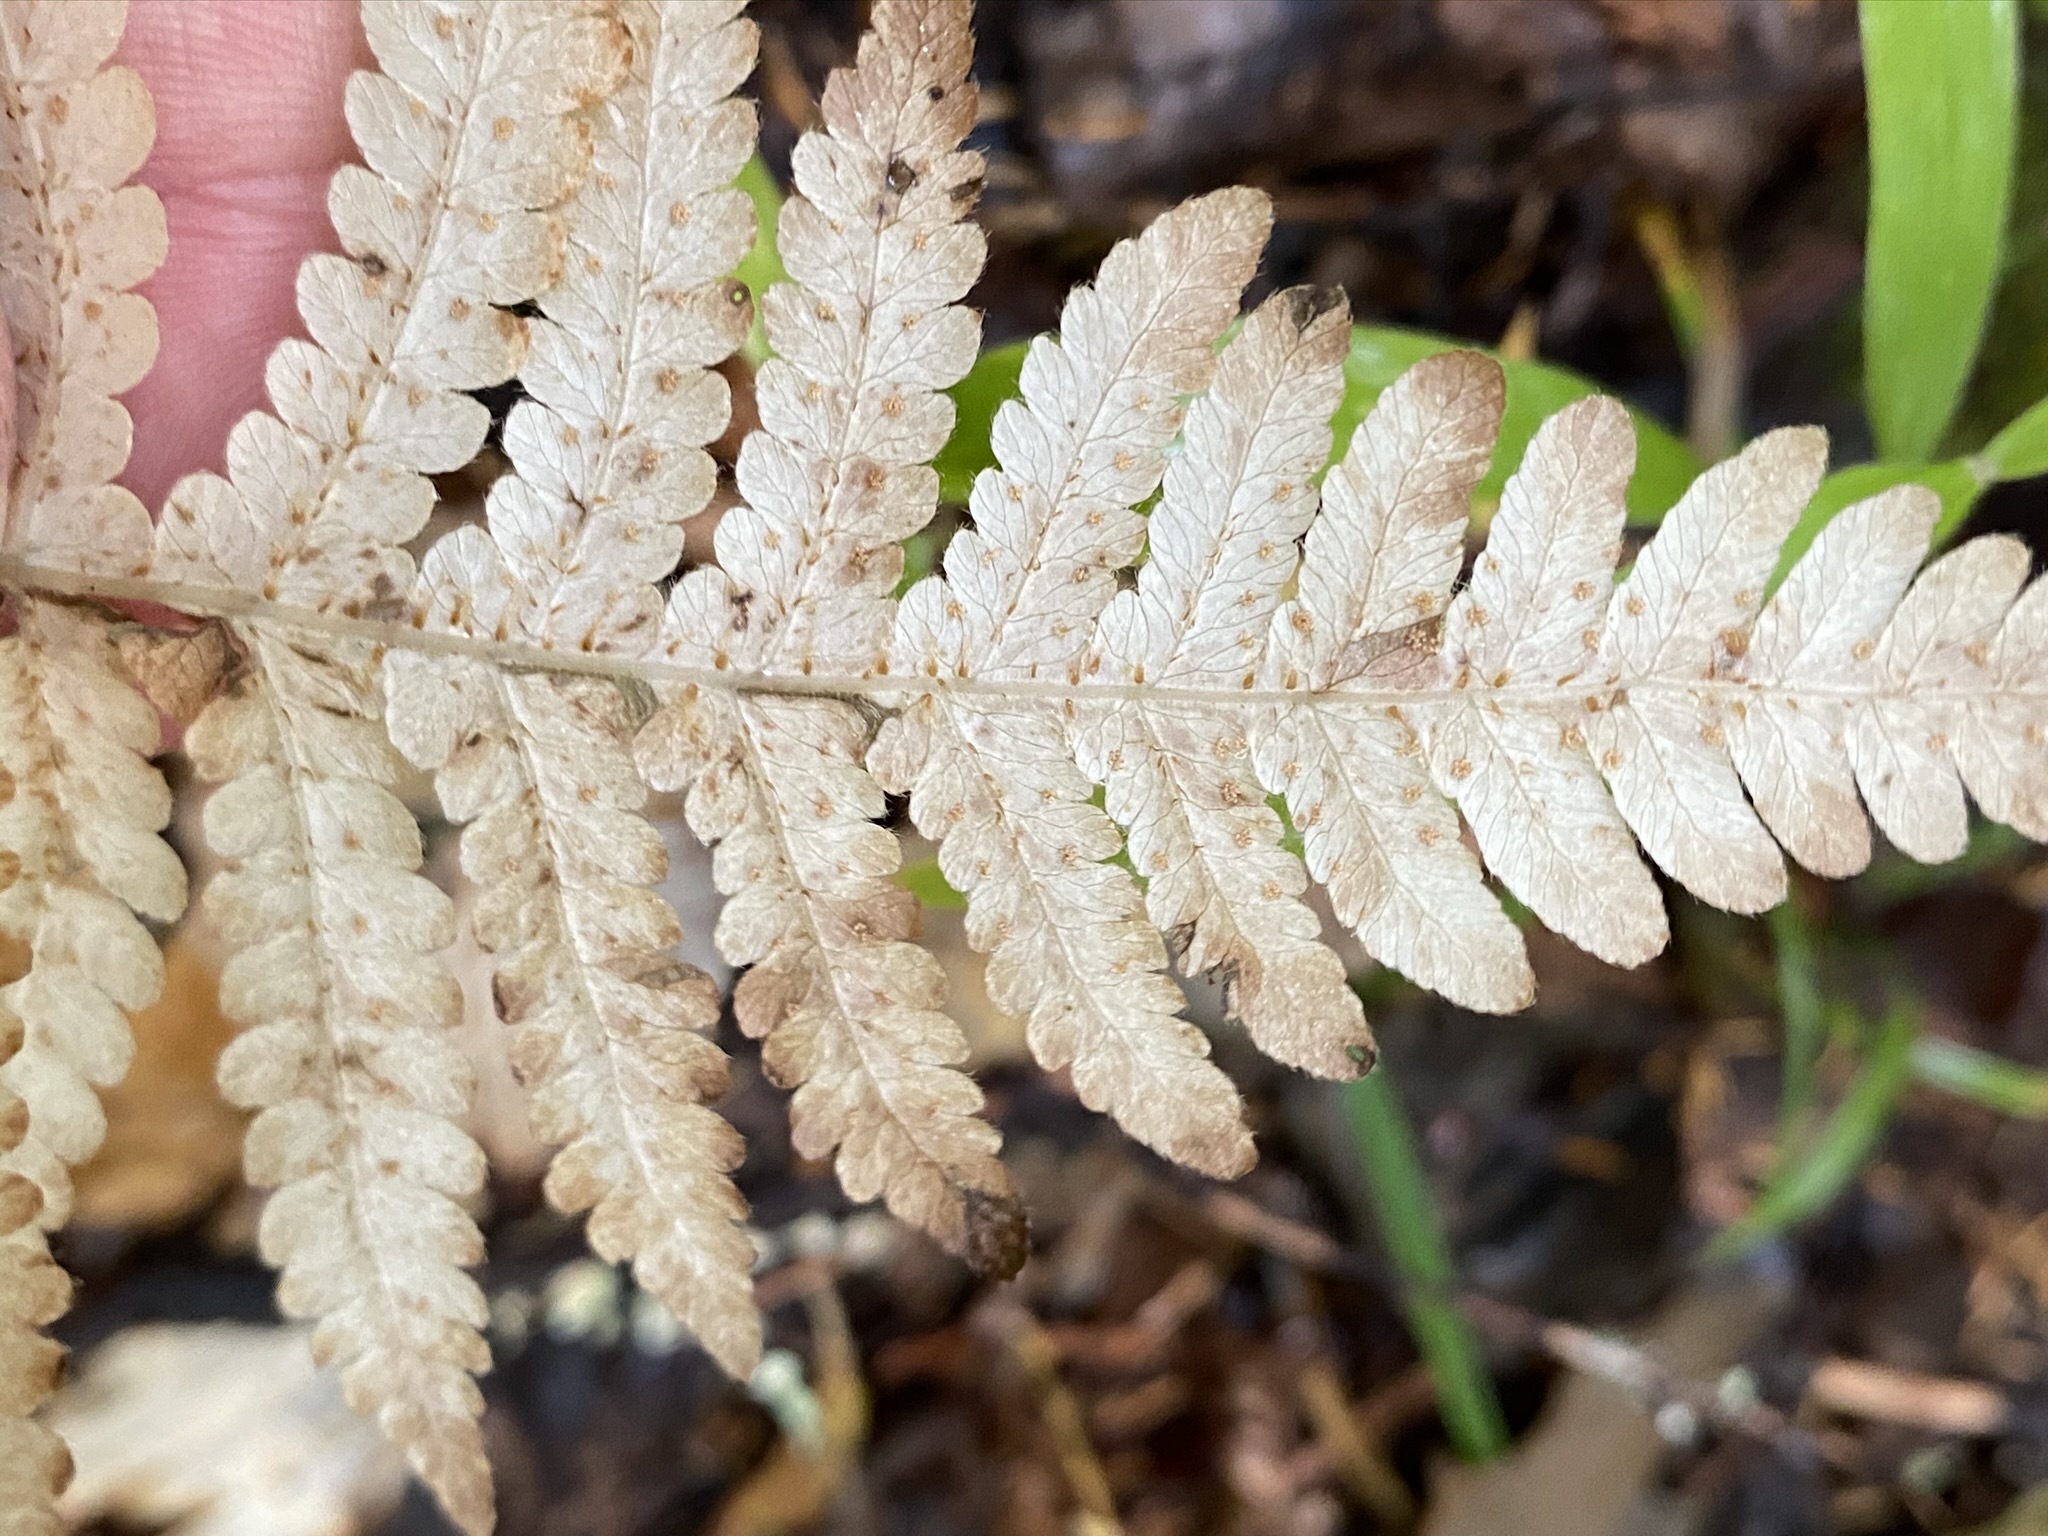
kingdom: Plantae
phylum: Tracheophyta
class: Polypodiopsida
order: Polypodiales
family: Thelypteridaceae
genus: Phegopteris
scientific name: Phegopteris connectilis
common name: Beech fern
